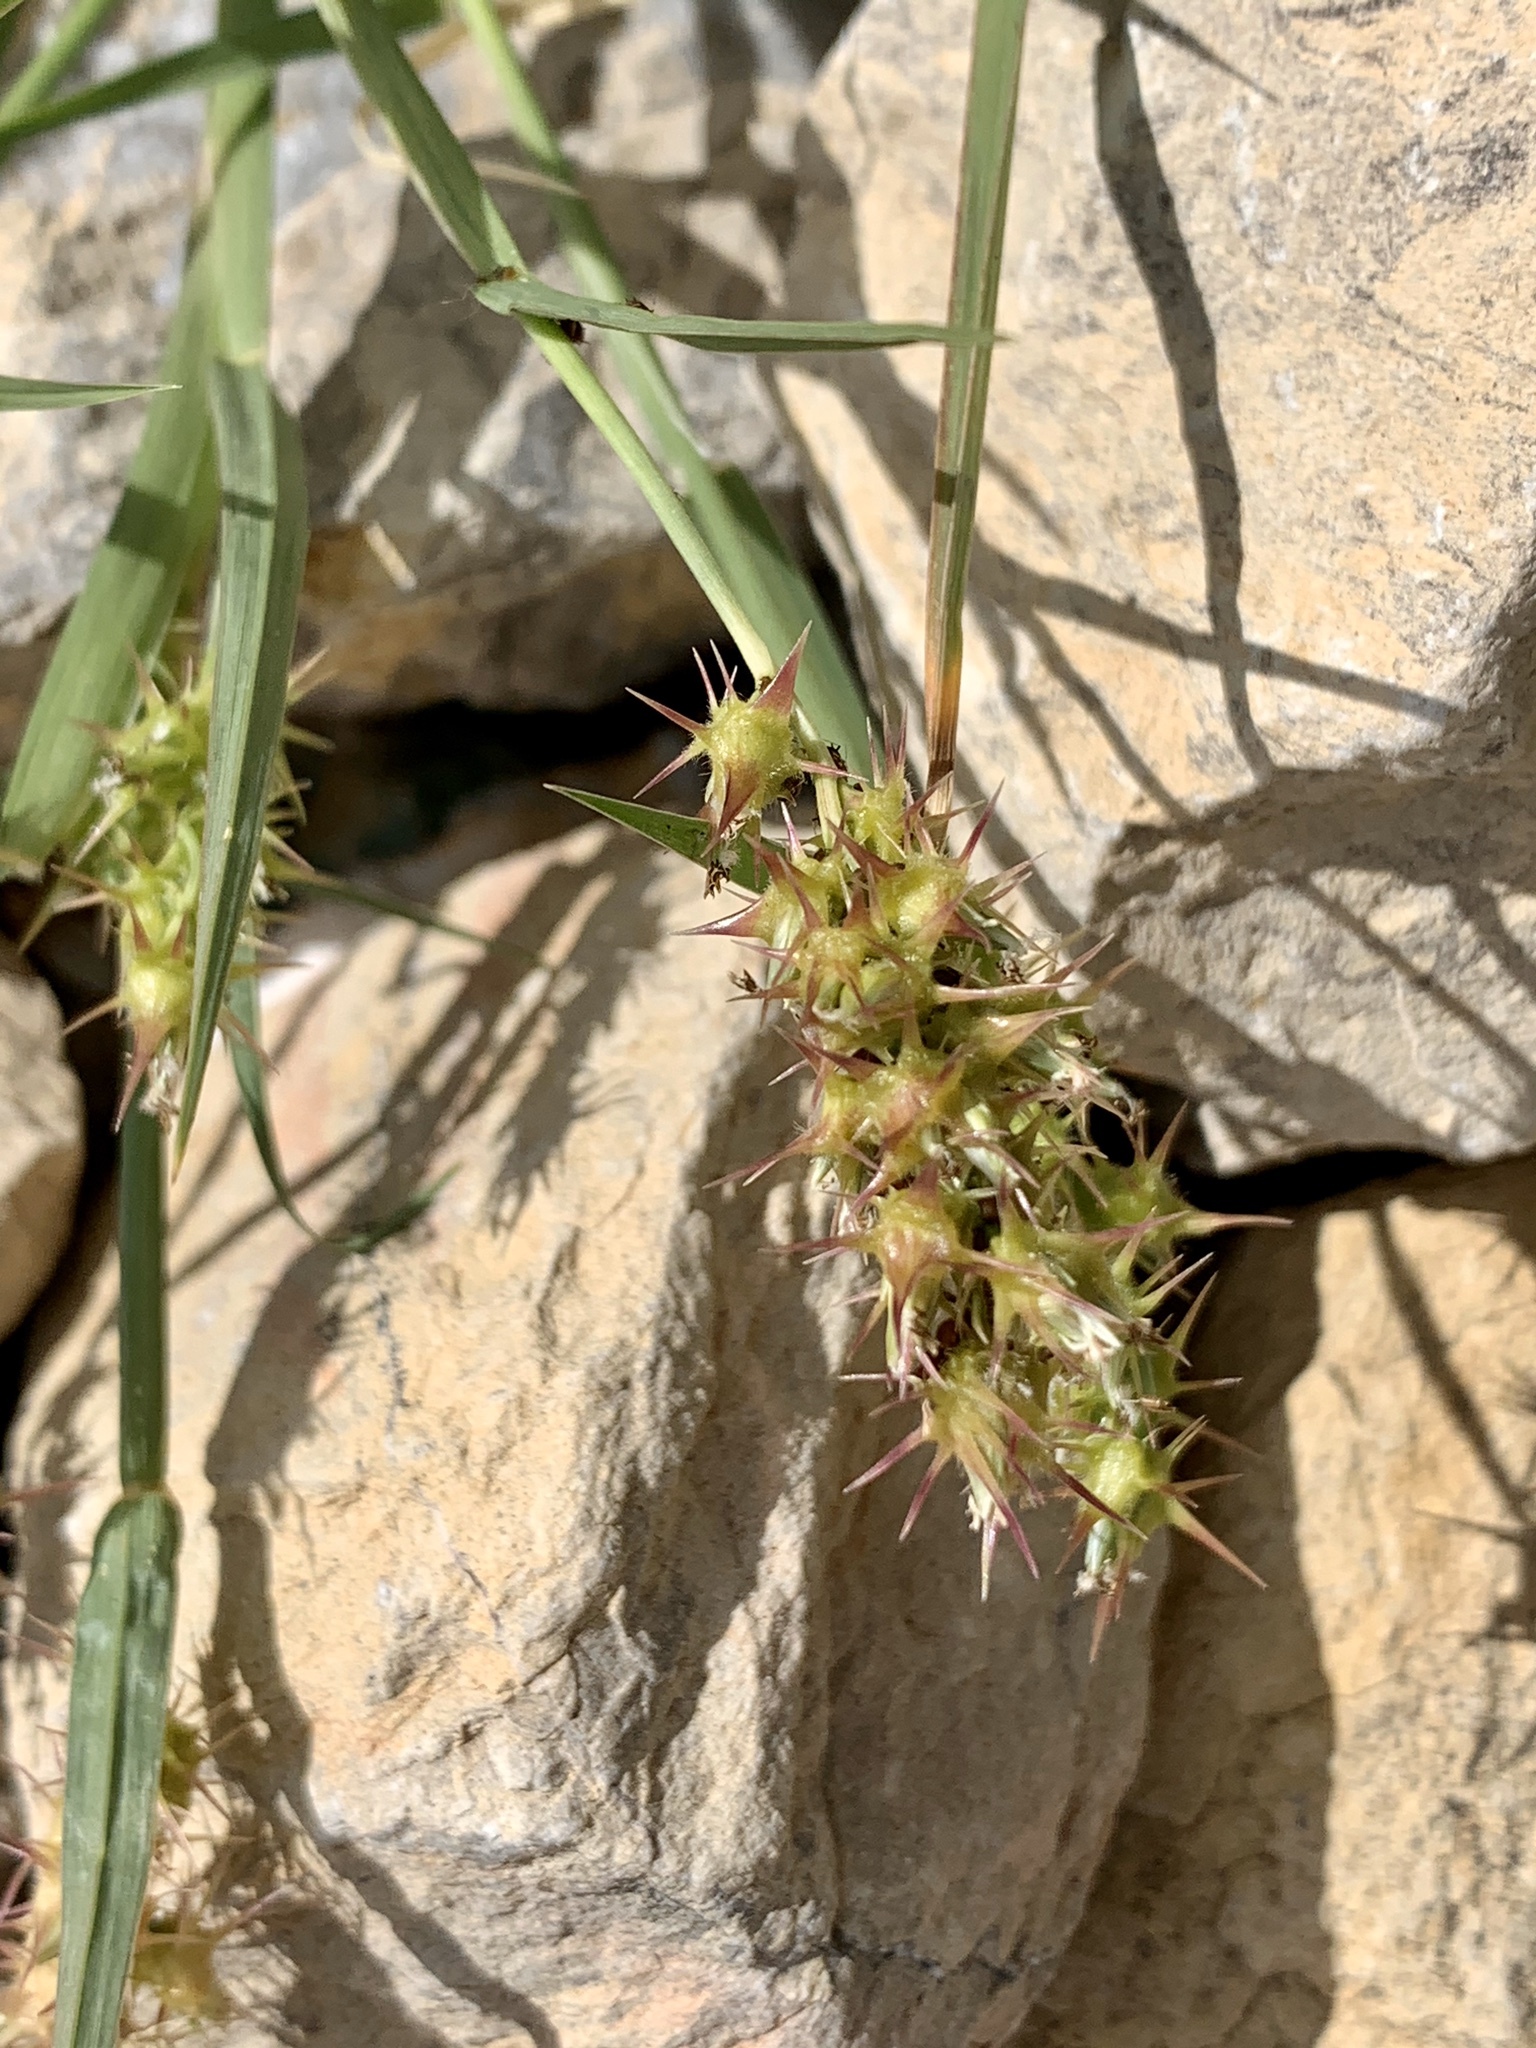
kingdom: Plantae
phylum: Tracheophyta
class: Liliopsida
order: Poales
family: Poaceae
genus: Cenchrus
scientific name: Cenchrus spinifex
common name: Coast sandbur
